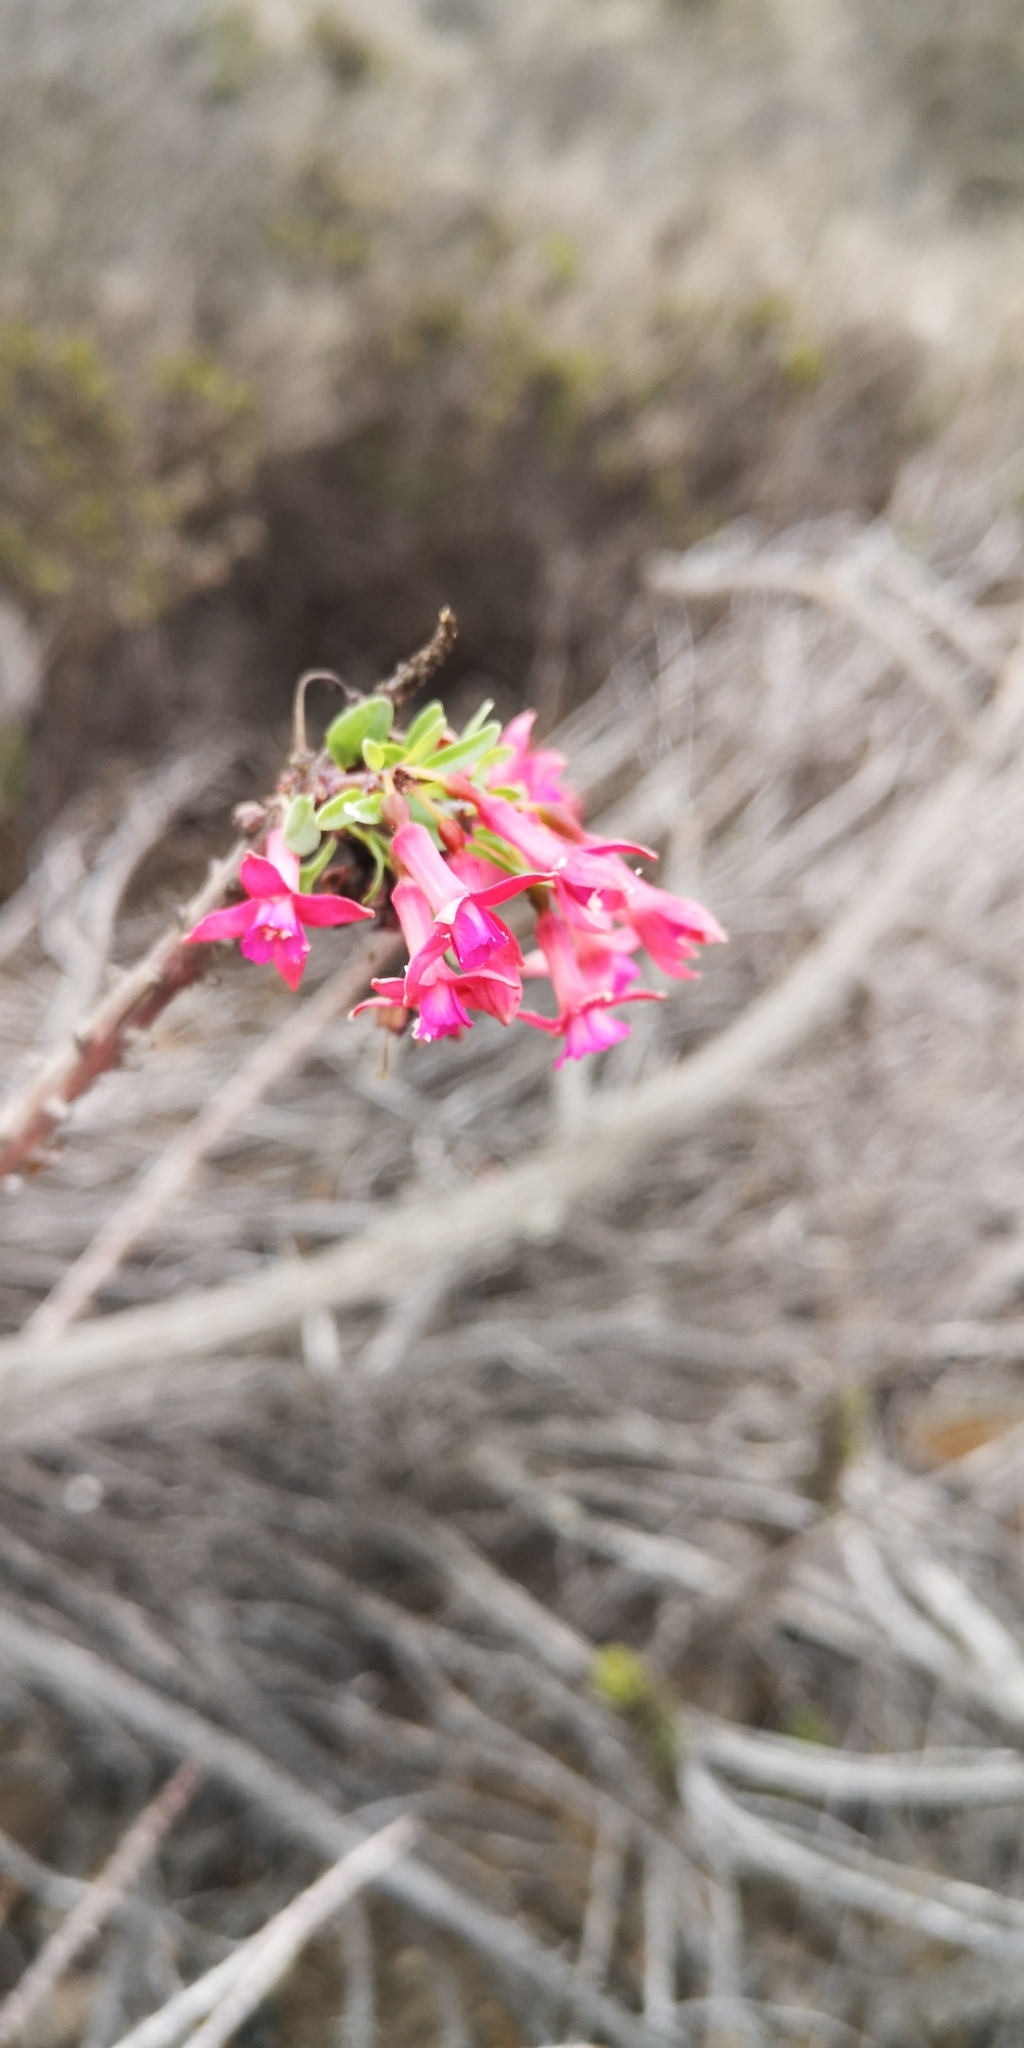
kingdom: Plantae
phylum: Tracheophyta
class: Magnoliopsida
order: Myrtales
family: Onagraceae
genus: Fuchsia
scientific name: Fuchsia lycioides
